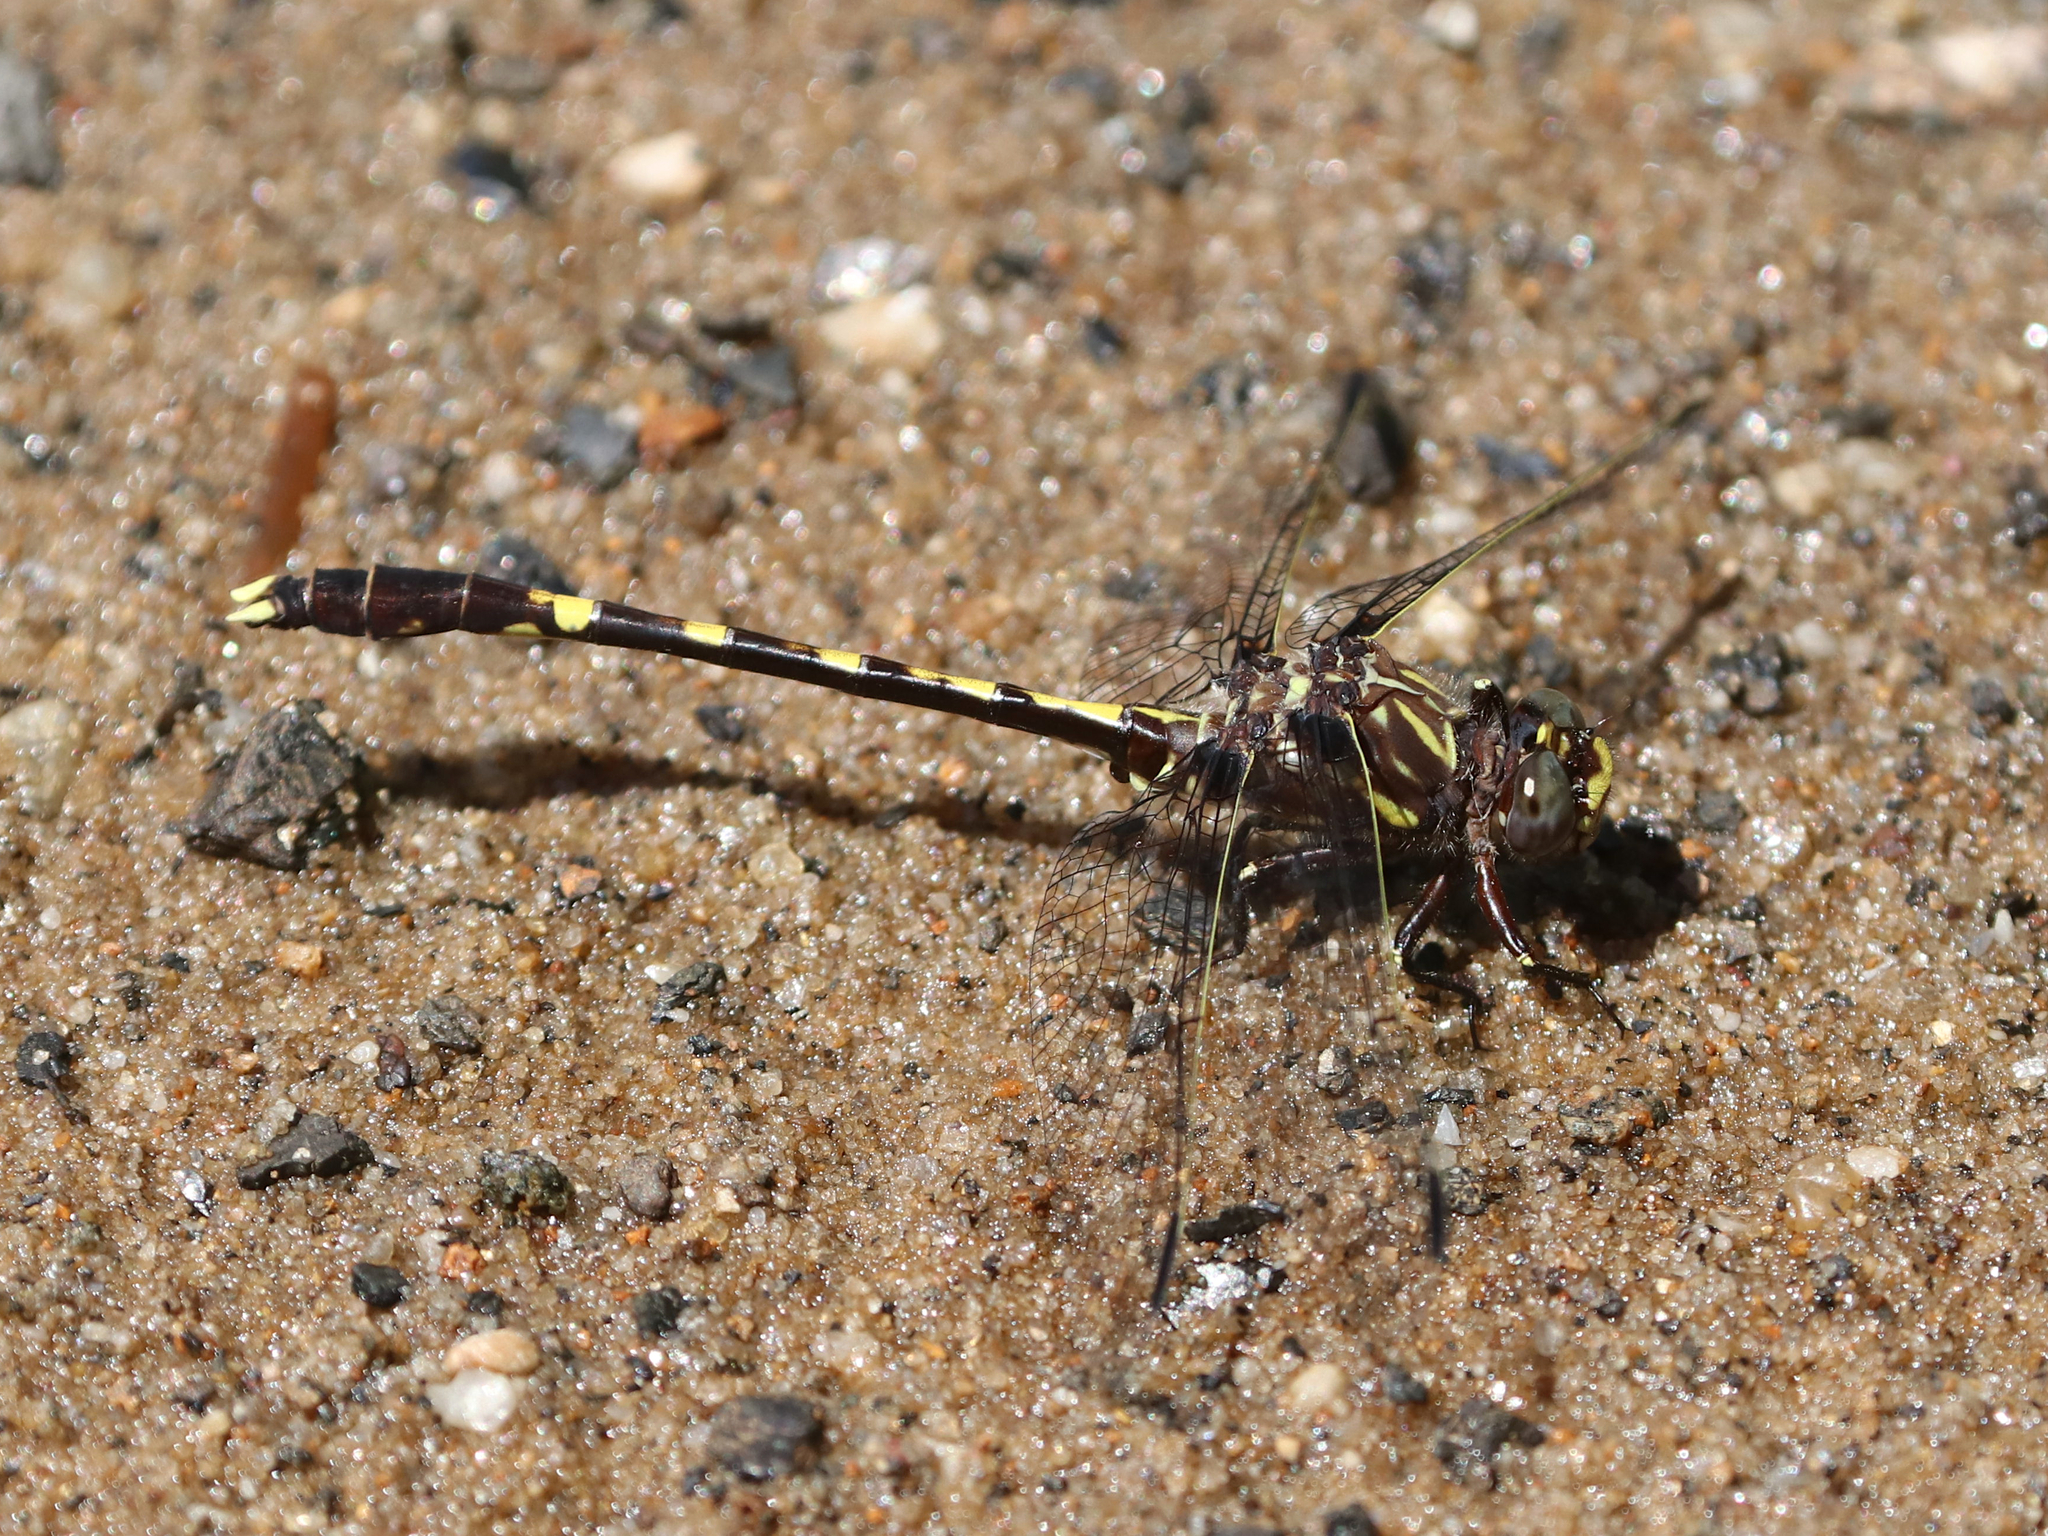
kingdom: Animalia
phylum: Arthropoda
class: Insecta
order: Odonata
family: Gomphidae
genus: Progomphus
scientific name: Progomphus obscurus
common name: Common sanddragon
